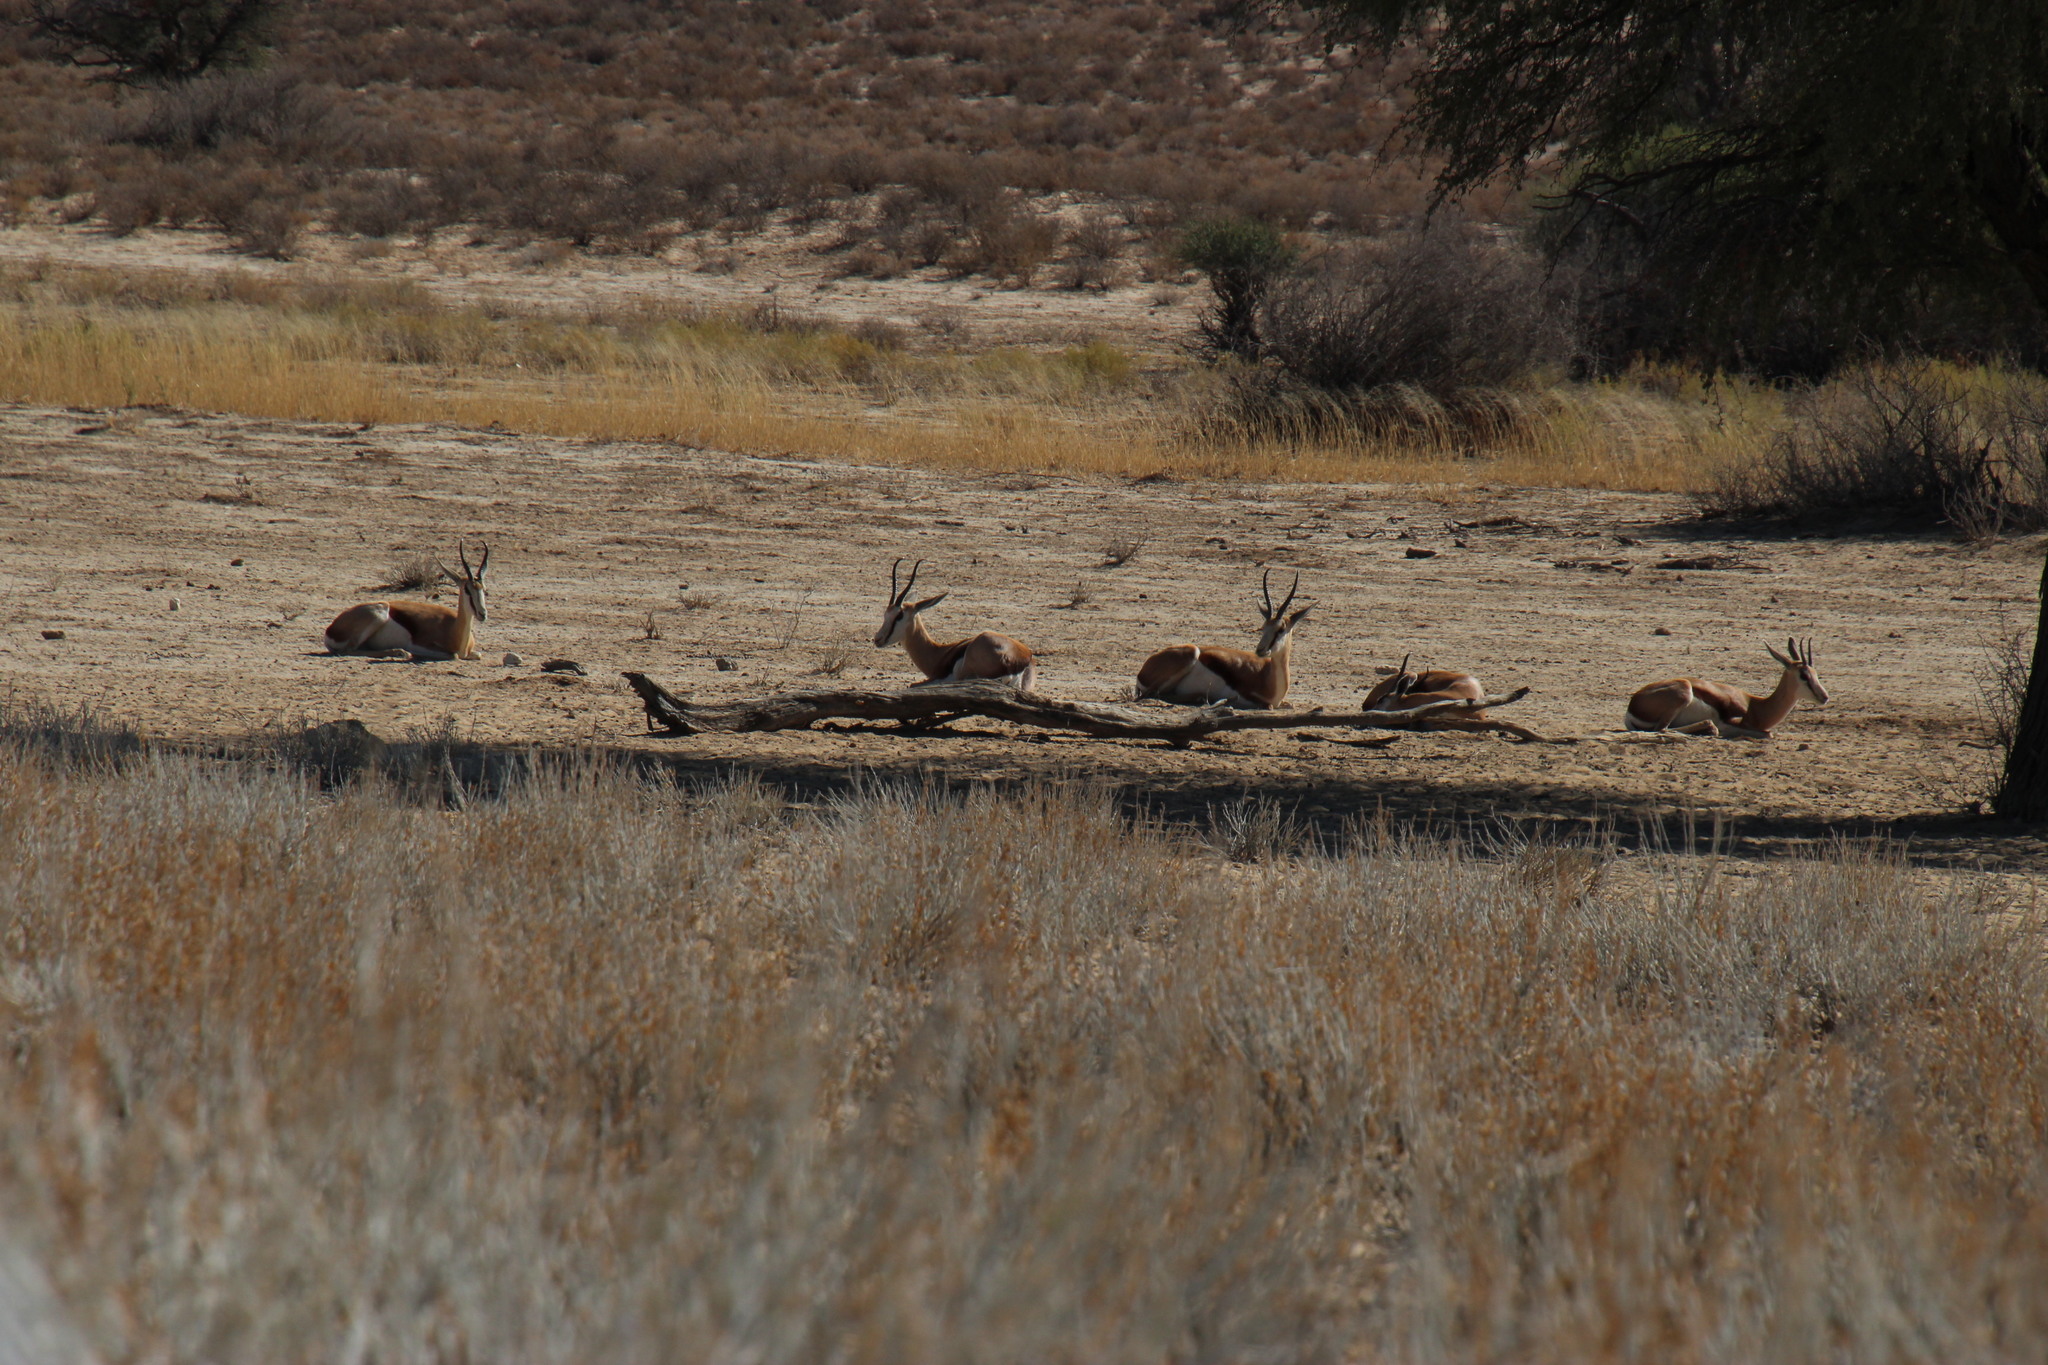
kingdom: Animalia
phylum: Chordata
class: Mammalia
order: Artiodactyla
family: Bovidae
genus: Antidorcas
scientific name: Antidorcas marsupialis
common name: Springbok
